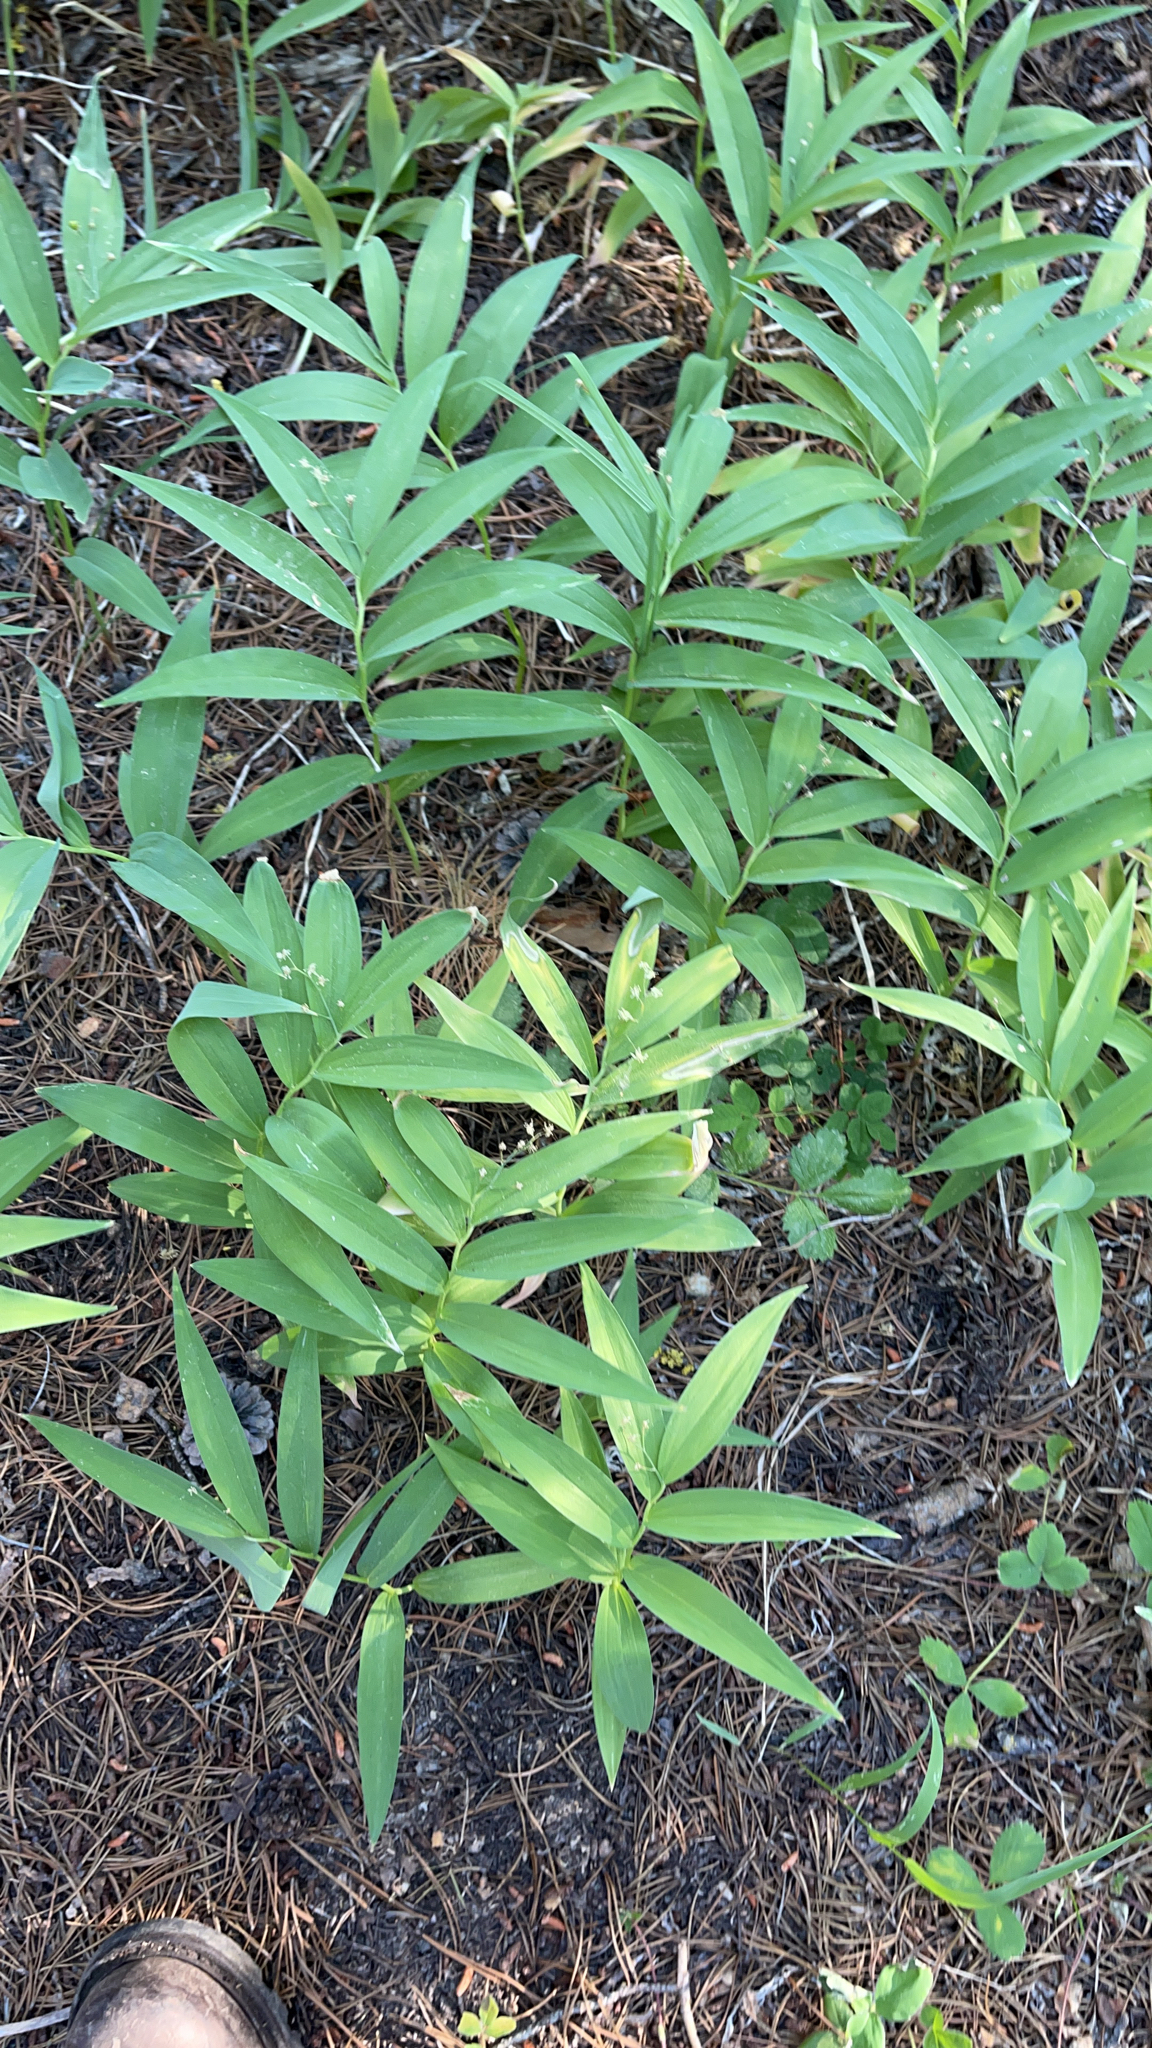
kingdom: Plantae
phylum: Tracheophyta
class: Liliopsida
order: Asparagales
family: Asparagaceae
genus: Maianthemum
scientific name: Maianthemum stellatum
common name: Little false solomon's seal
